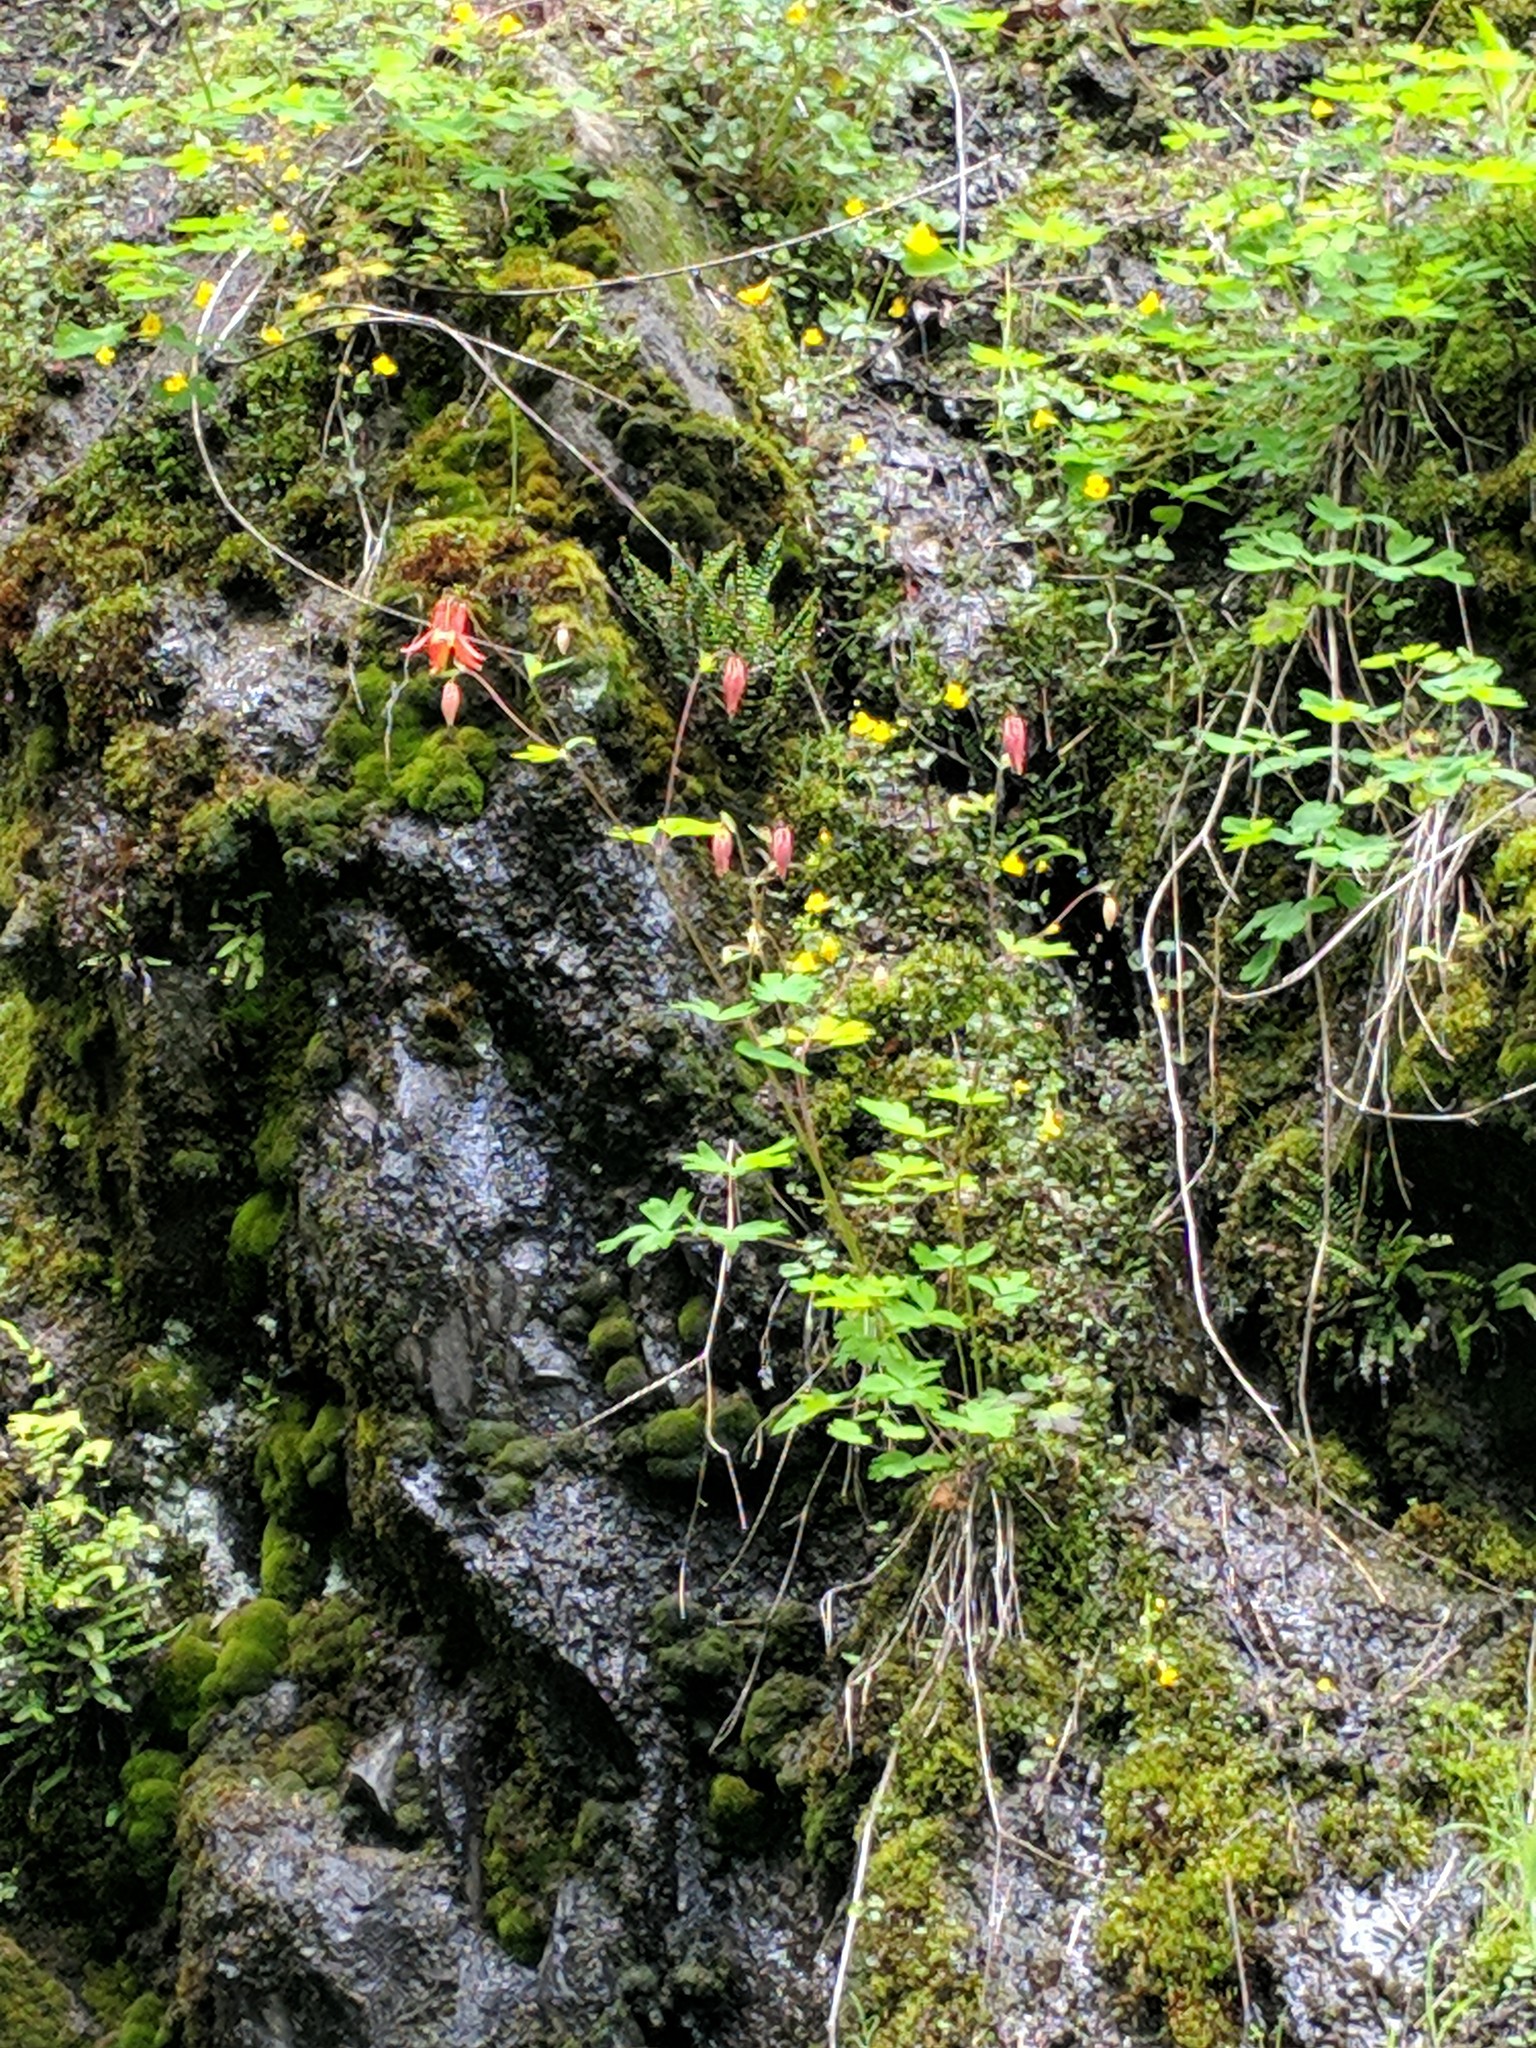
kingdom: Plantae
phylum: Tracheophyta
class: Magnoliopsida
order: Ranunculales
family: Ranunculaceae
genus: Aquilegia
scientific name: Aquilegia formosa
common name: Sitka columbine
